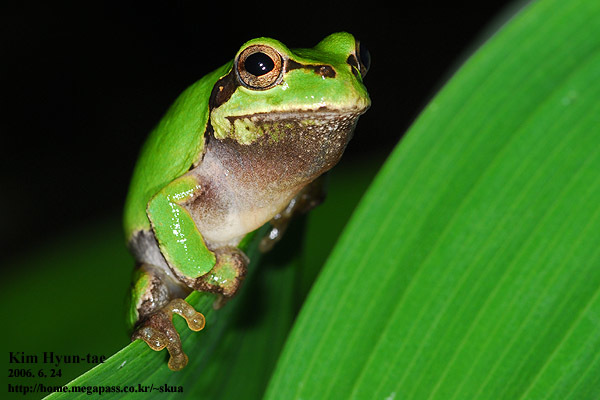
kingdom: Animalia
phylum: Chordata
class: Amphibia
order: Anura
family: Hylidae
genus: Dryophytes
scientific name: Dryophytes japonicus
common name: Japanese treefrog
